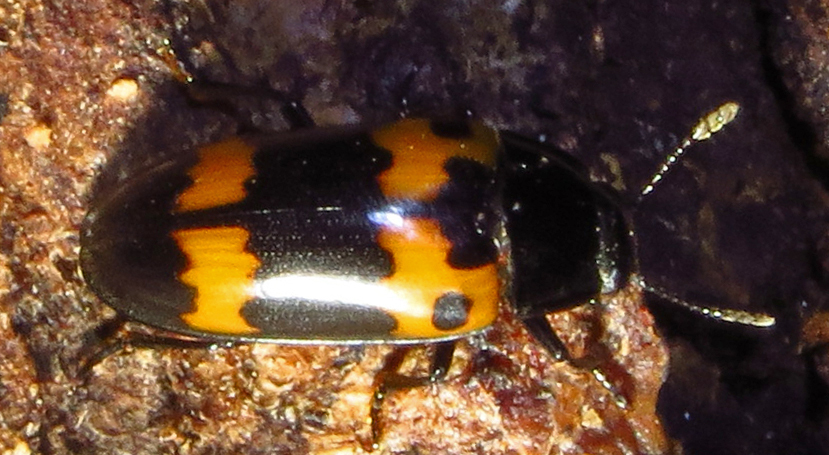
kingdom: Animalia
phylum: Arthropoda
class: Insecta
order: Coleoptera
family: Erotylidae
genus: Megalodacne
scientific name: Megalodacne fasciata
